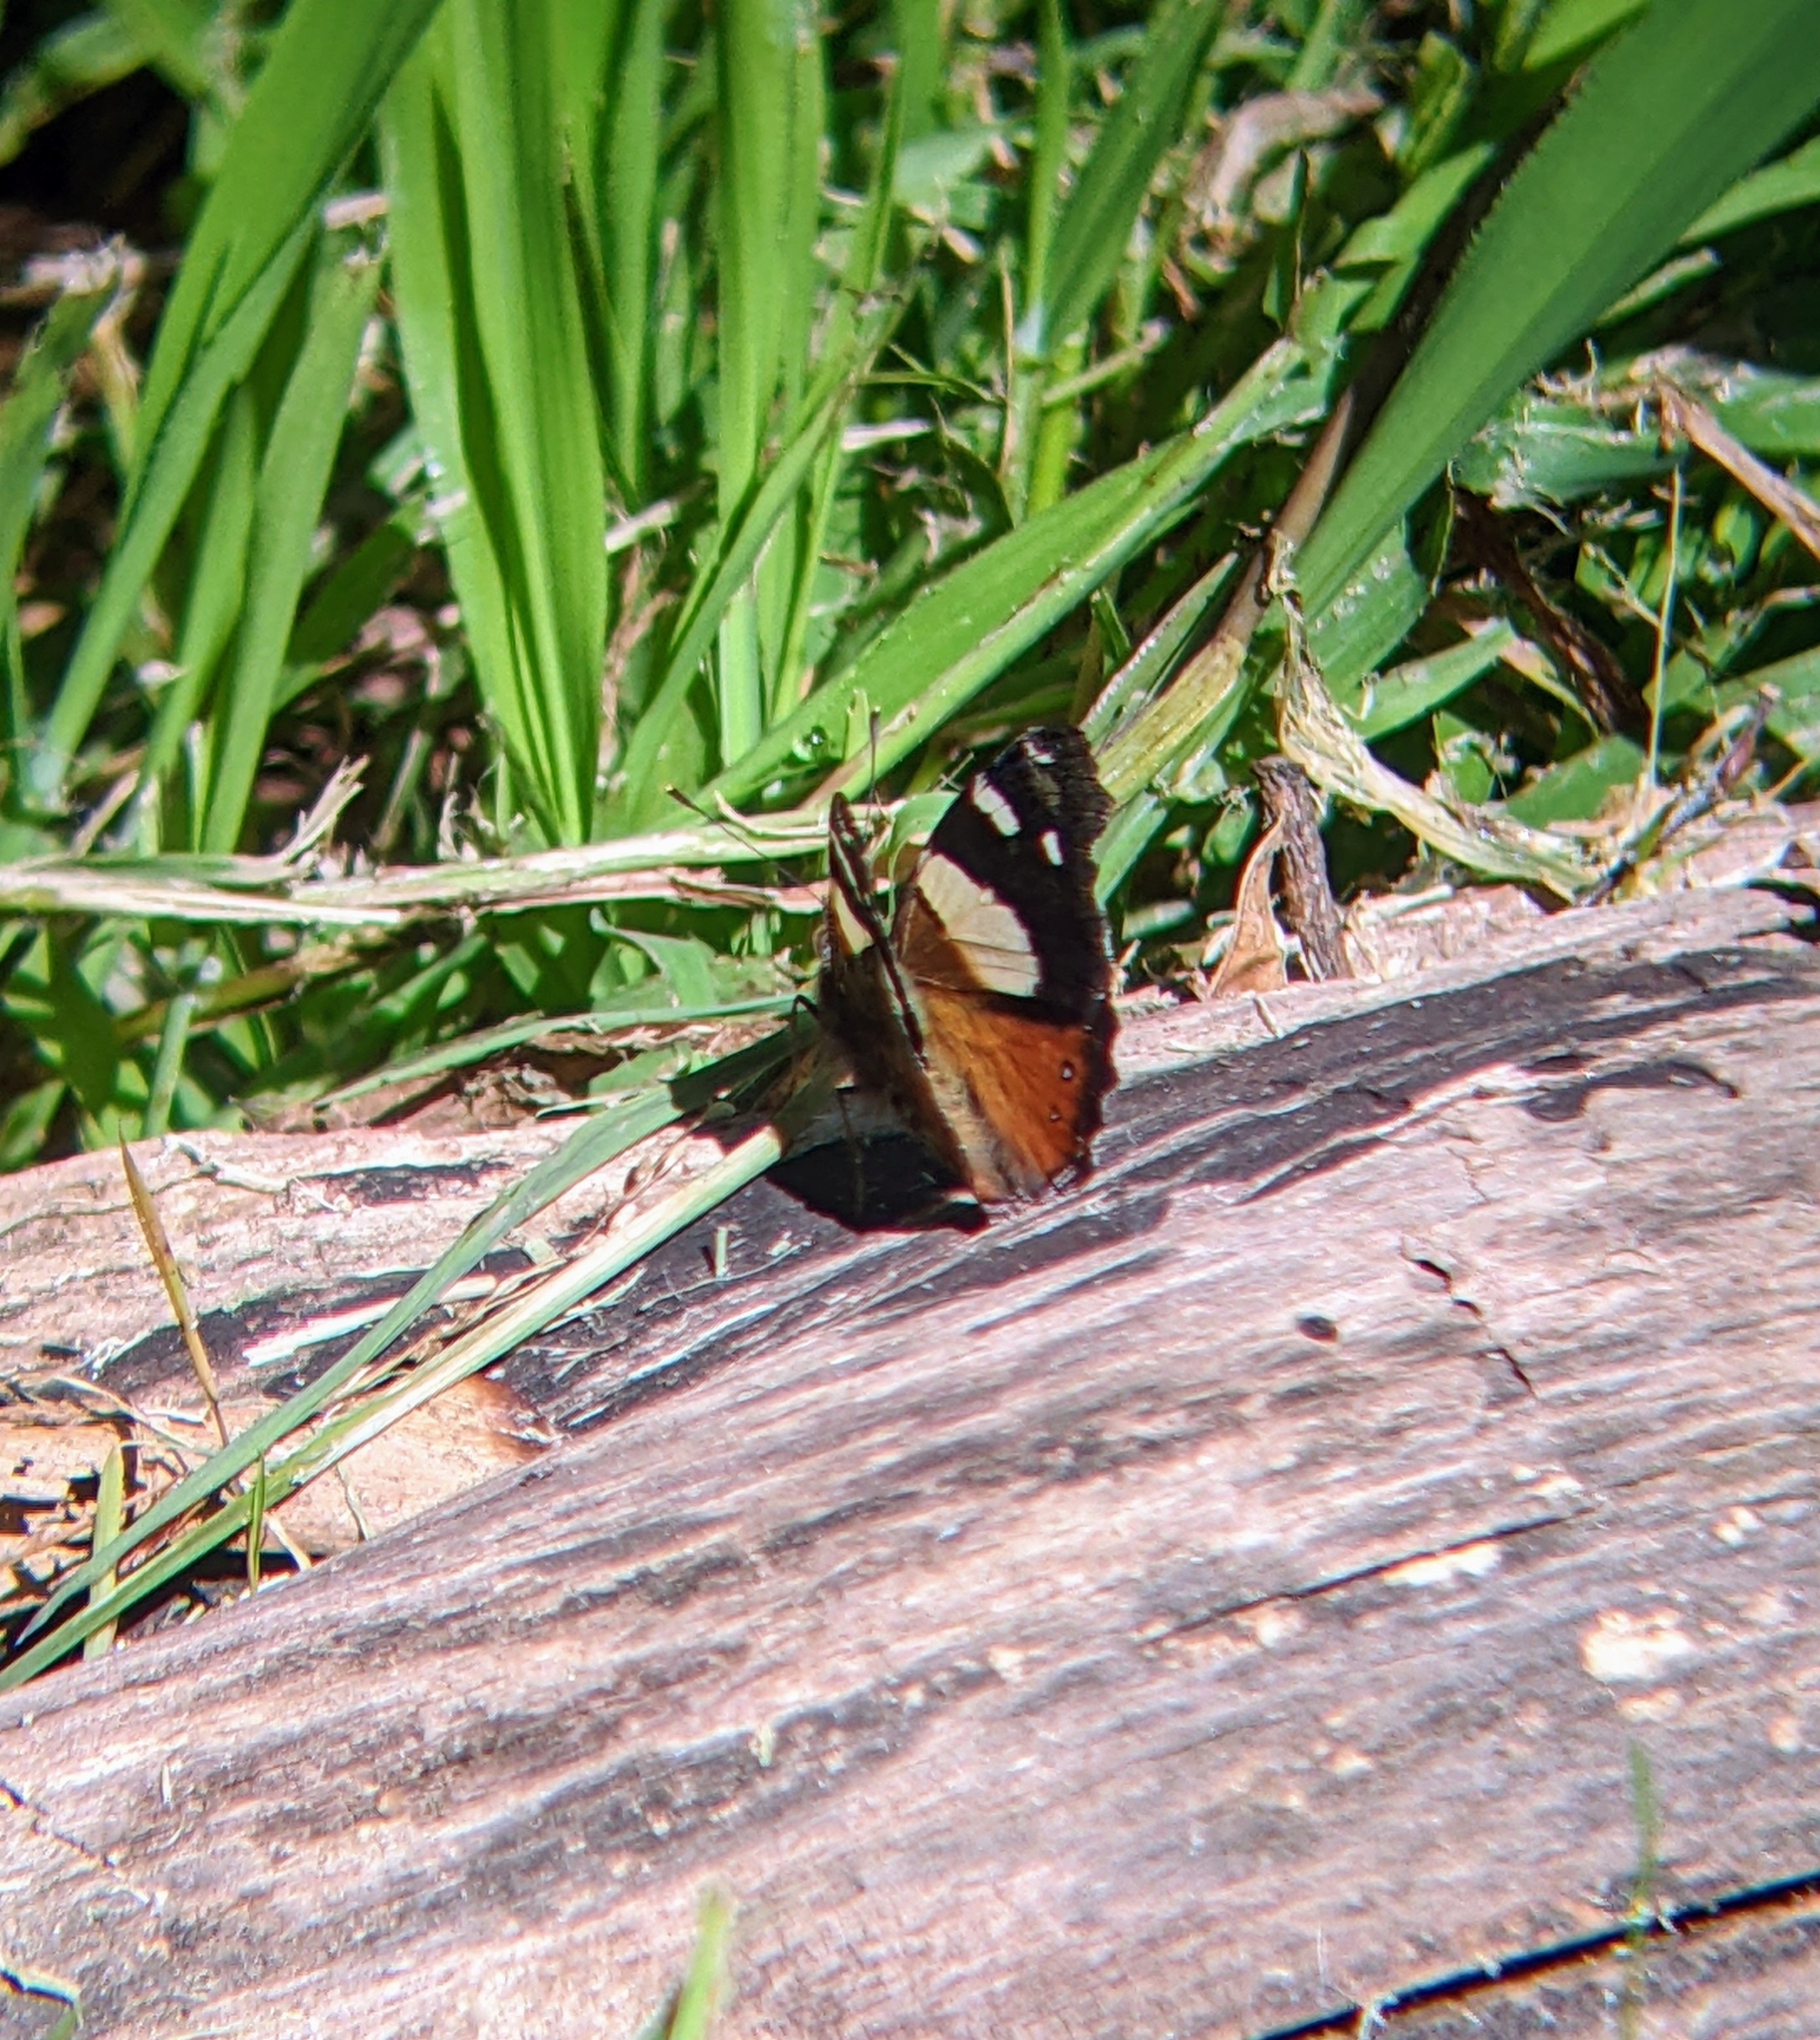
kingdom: Animalia
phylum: Arthropoda
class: Insecta
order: Lepidoptera
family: Nymphalidae
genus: Vanessa
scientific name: Vanessa itea
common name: Yellow admiral
